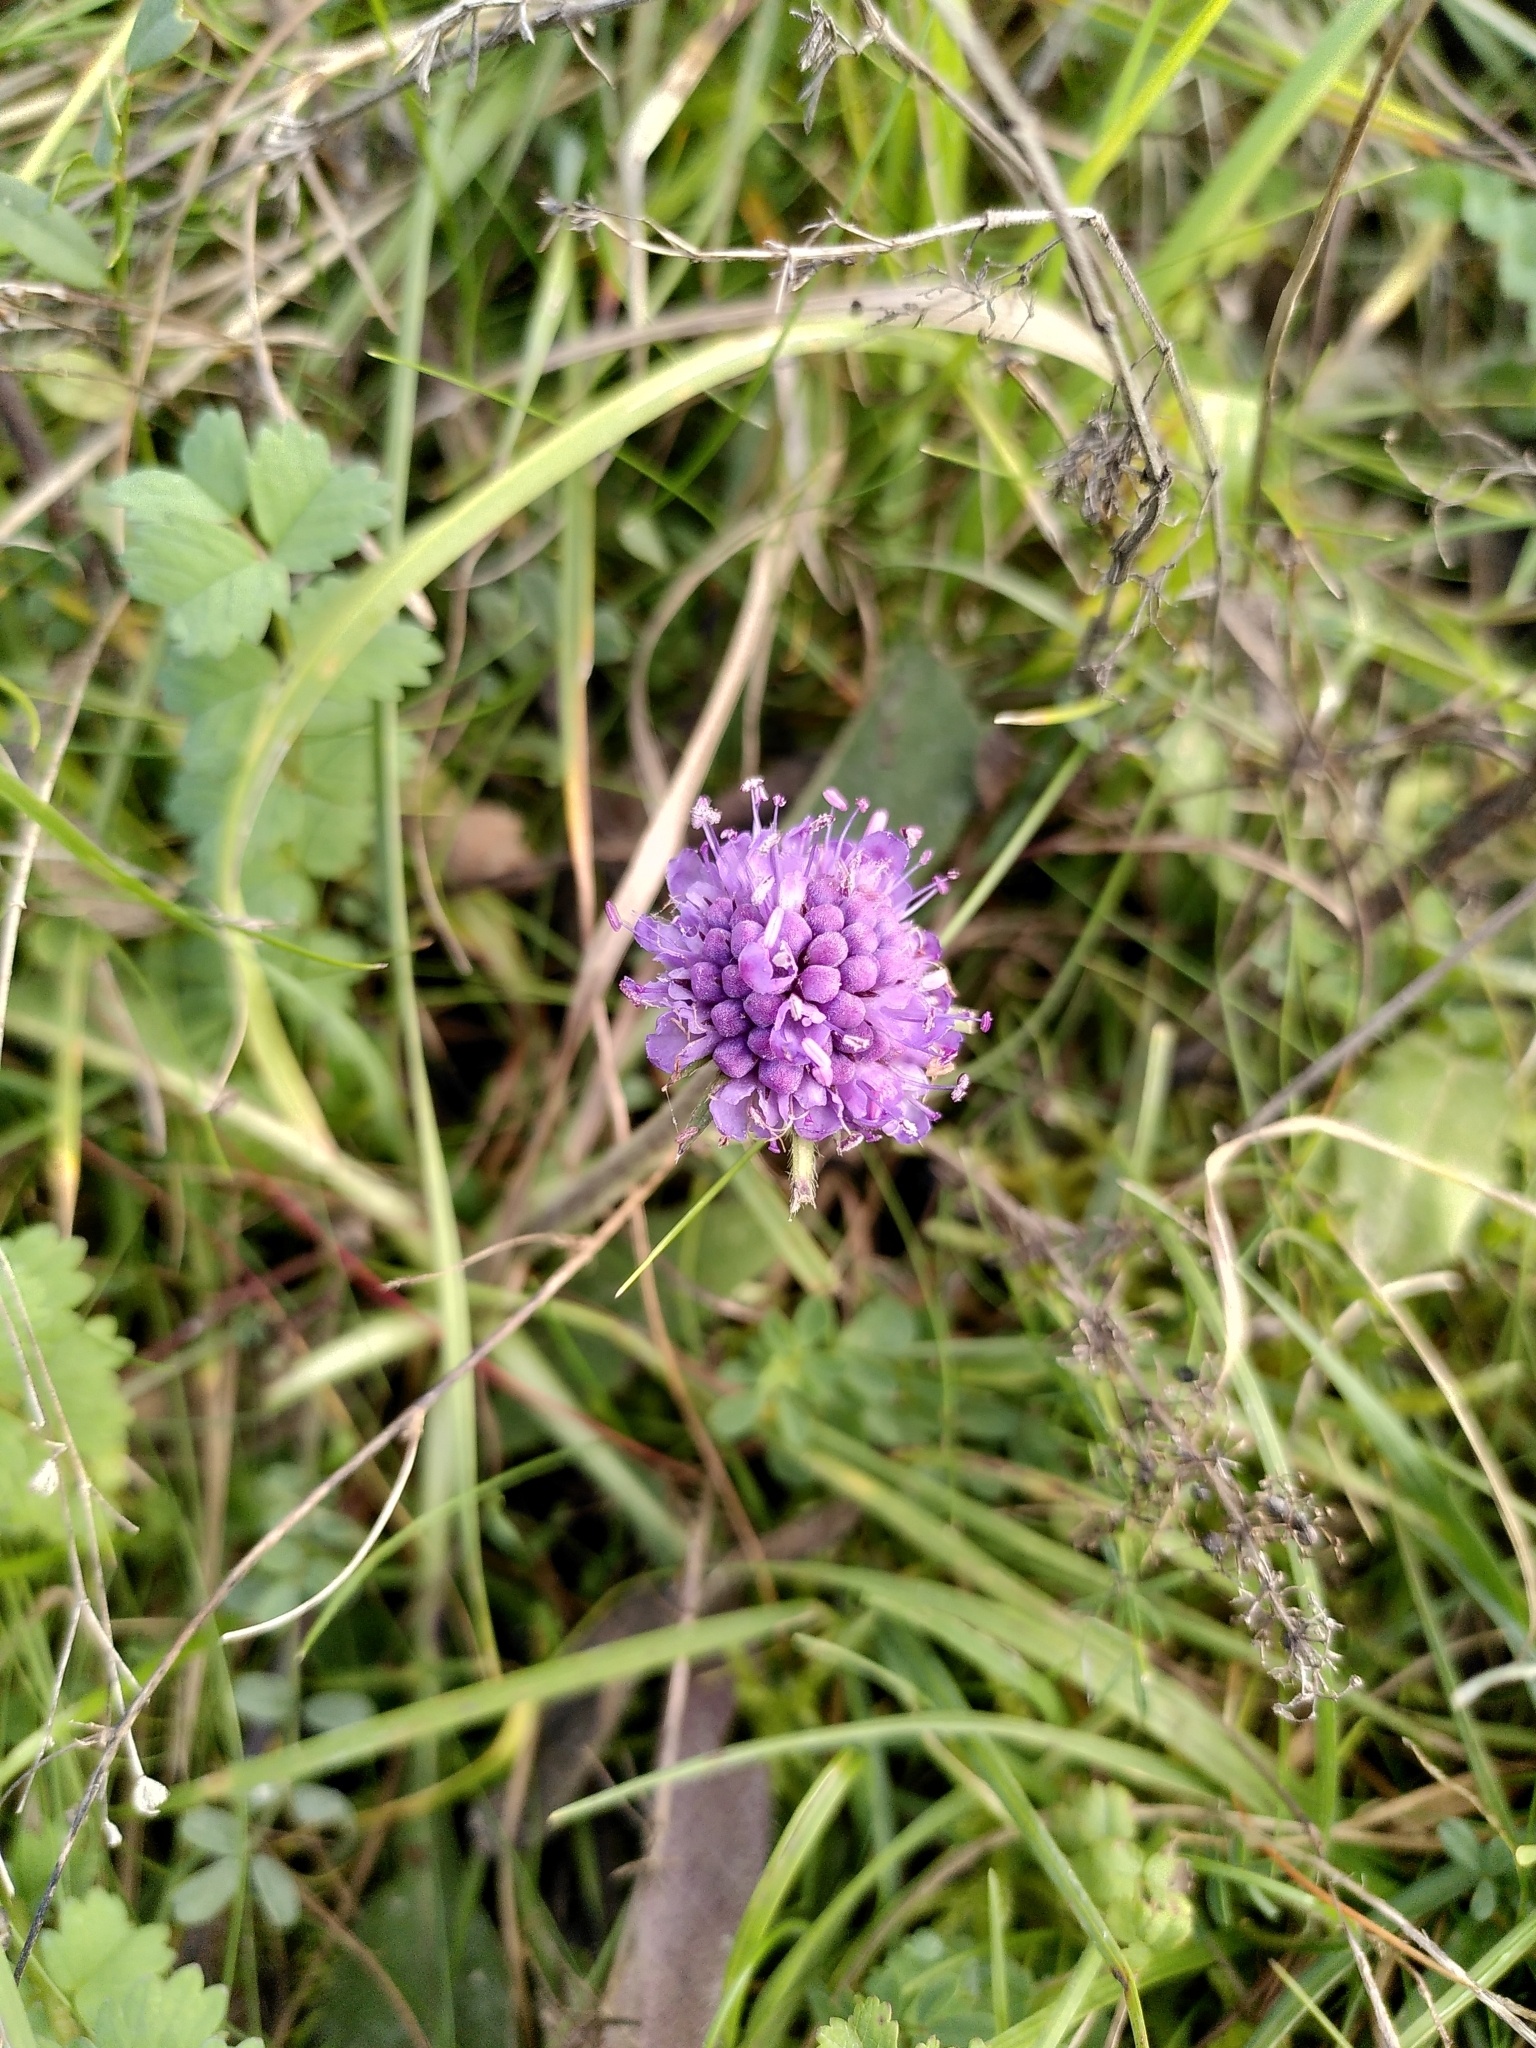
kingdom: Plantae
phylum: Tracheophyta
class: Magnoliopsida
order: Dipsacales
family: Caprifoliaceae
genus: Succisa
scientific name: Succisa pratensis
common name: Devil's-bit
